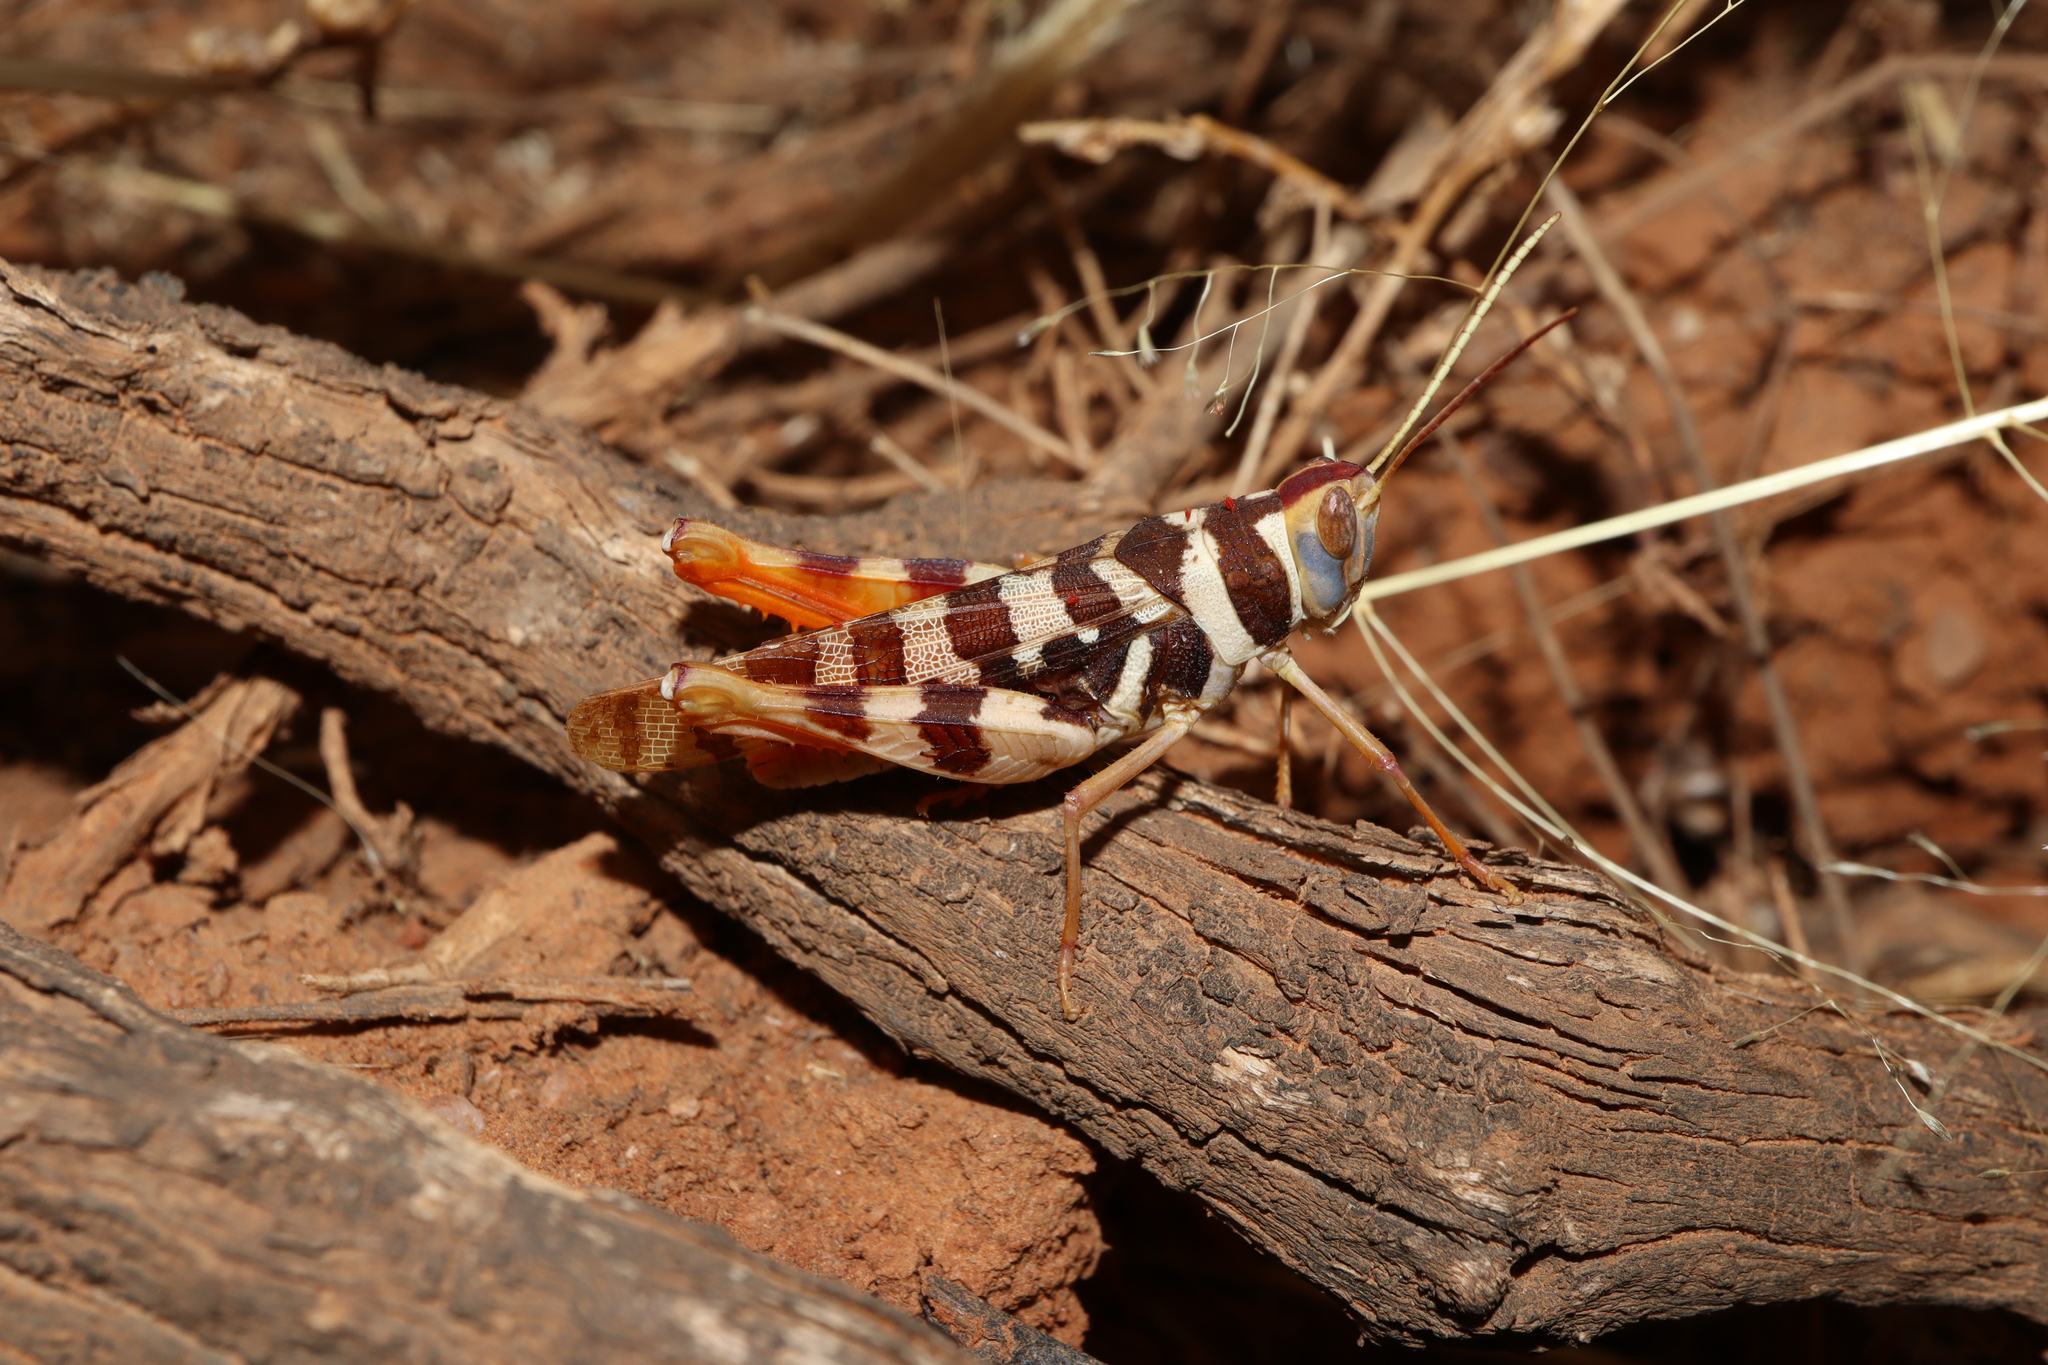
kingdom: Animalia
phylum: Arthropoda
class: Insecta
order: Orthoptera
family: Acrididae
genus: Stropis
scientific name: Stropis maculosa
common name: Leopard grasshopper
